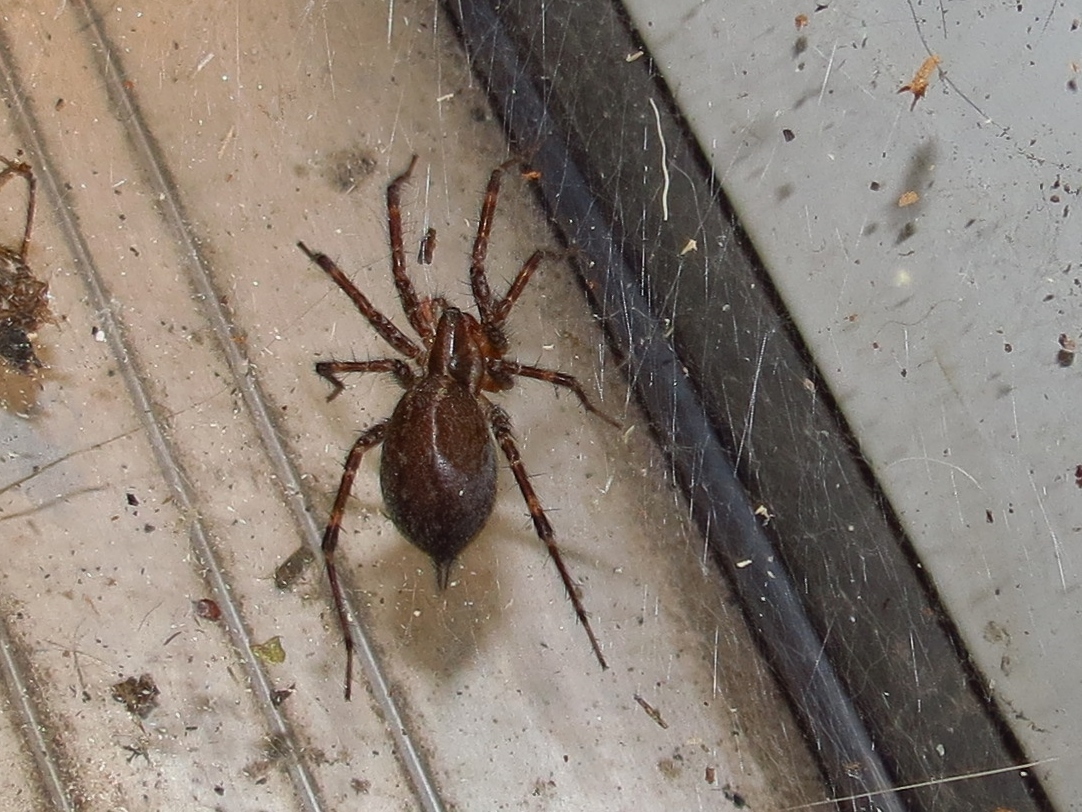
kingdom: Animalia
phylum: Arthropoda
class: Arachnida
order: Araneae
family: Agelenidae
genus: Agelenopsis
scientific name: Agelenopsis
